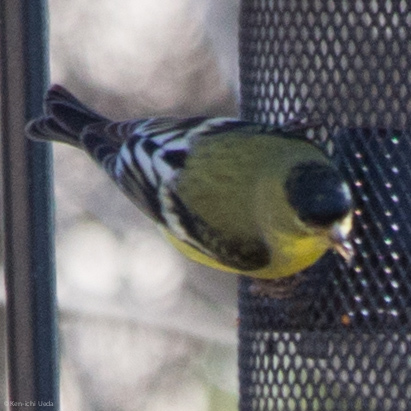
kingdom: Animalia
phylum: Chordata
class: Aves
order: Passeriformes
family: Fringillidae
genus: Spinus
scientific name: Spinus psaltria
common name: Lesser goldfinch
